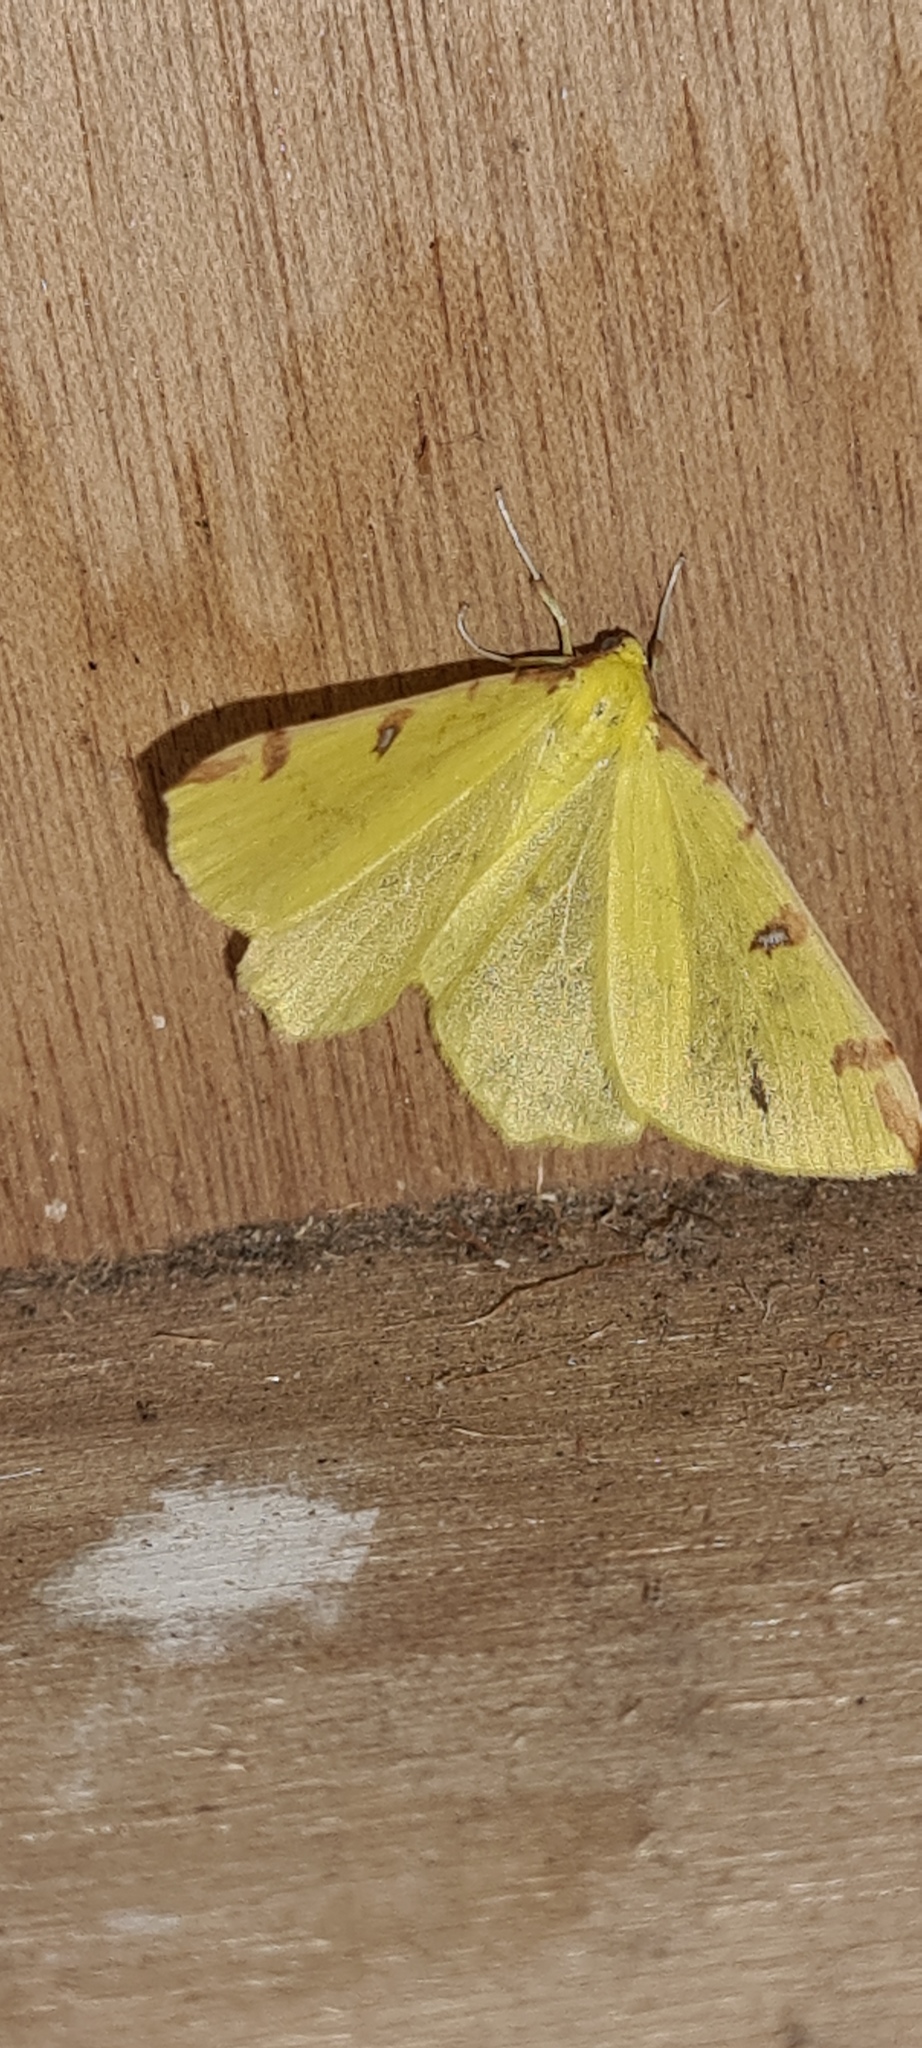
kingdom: Animalia
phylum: Arthropoda
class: Insecta
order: Lepidoptera
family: Geometridae
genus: Opisthograptis
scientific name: Opisthograptis luteolata
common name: Brimstone moth
